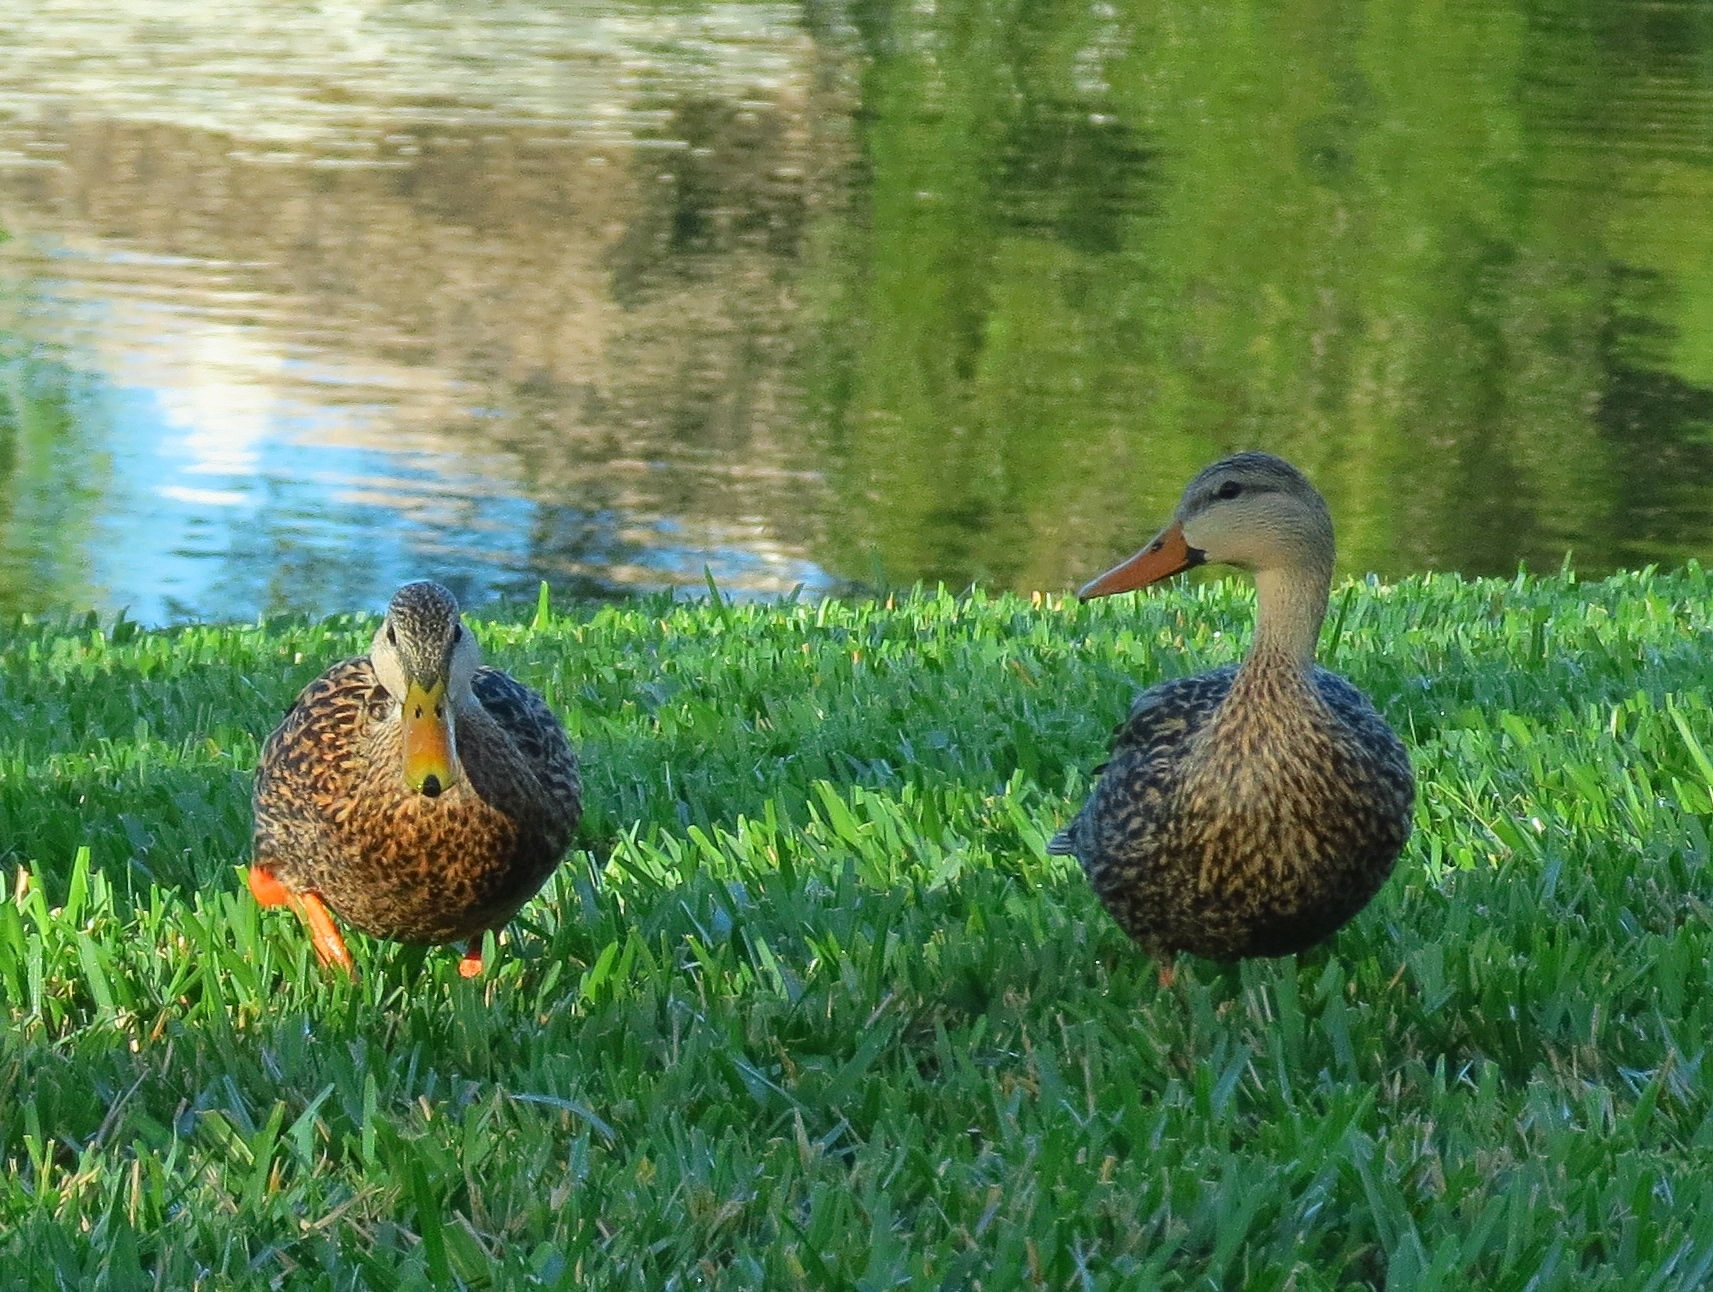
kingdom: Animalia
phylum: Chordata
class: Aves
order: Anseriformes
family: Anatidae
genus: Anas
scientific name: Anas
